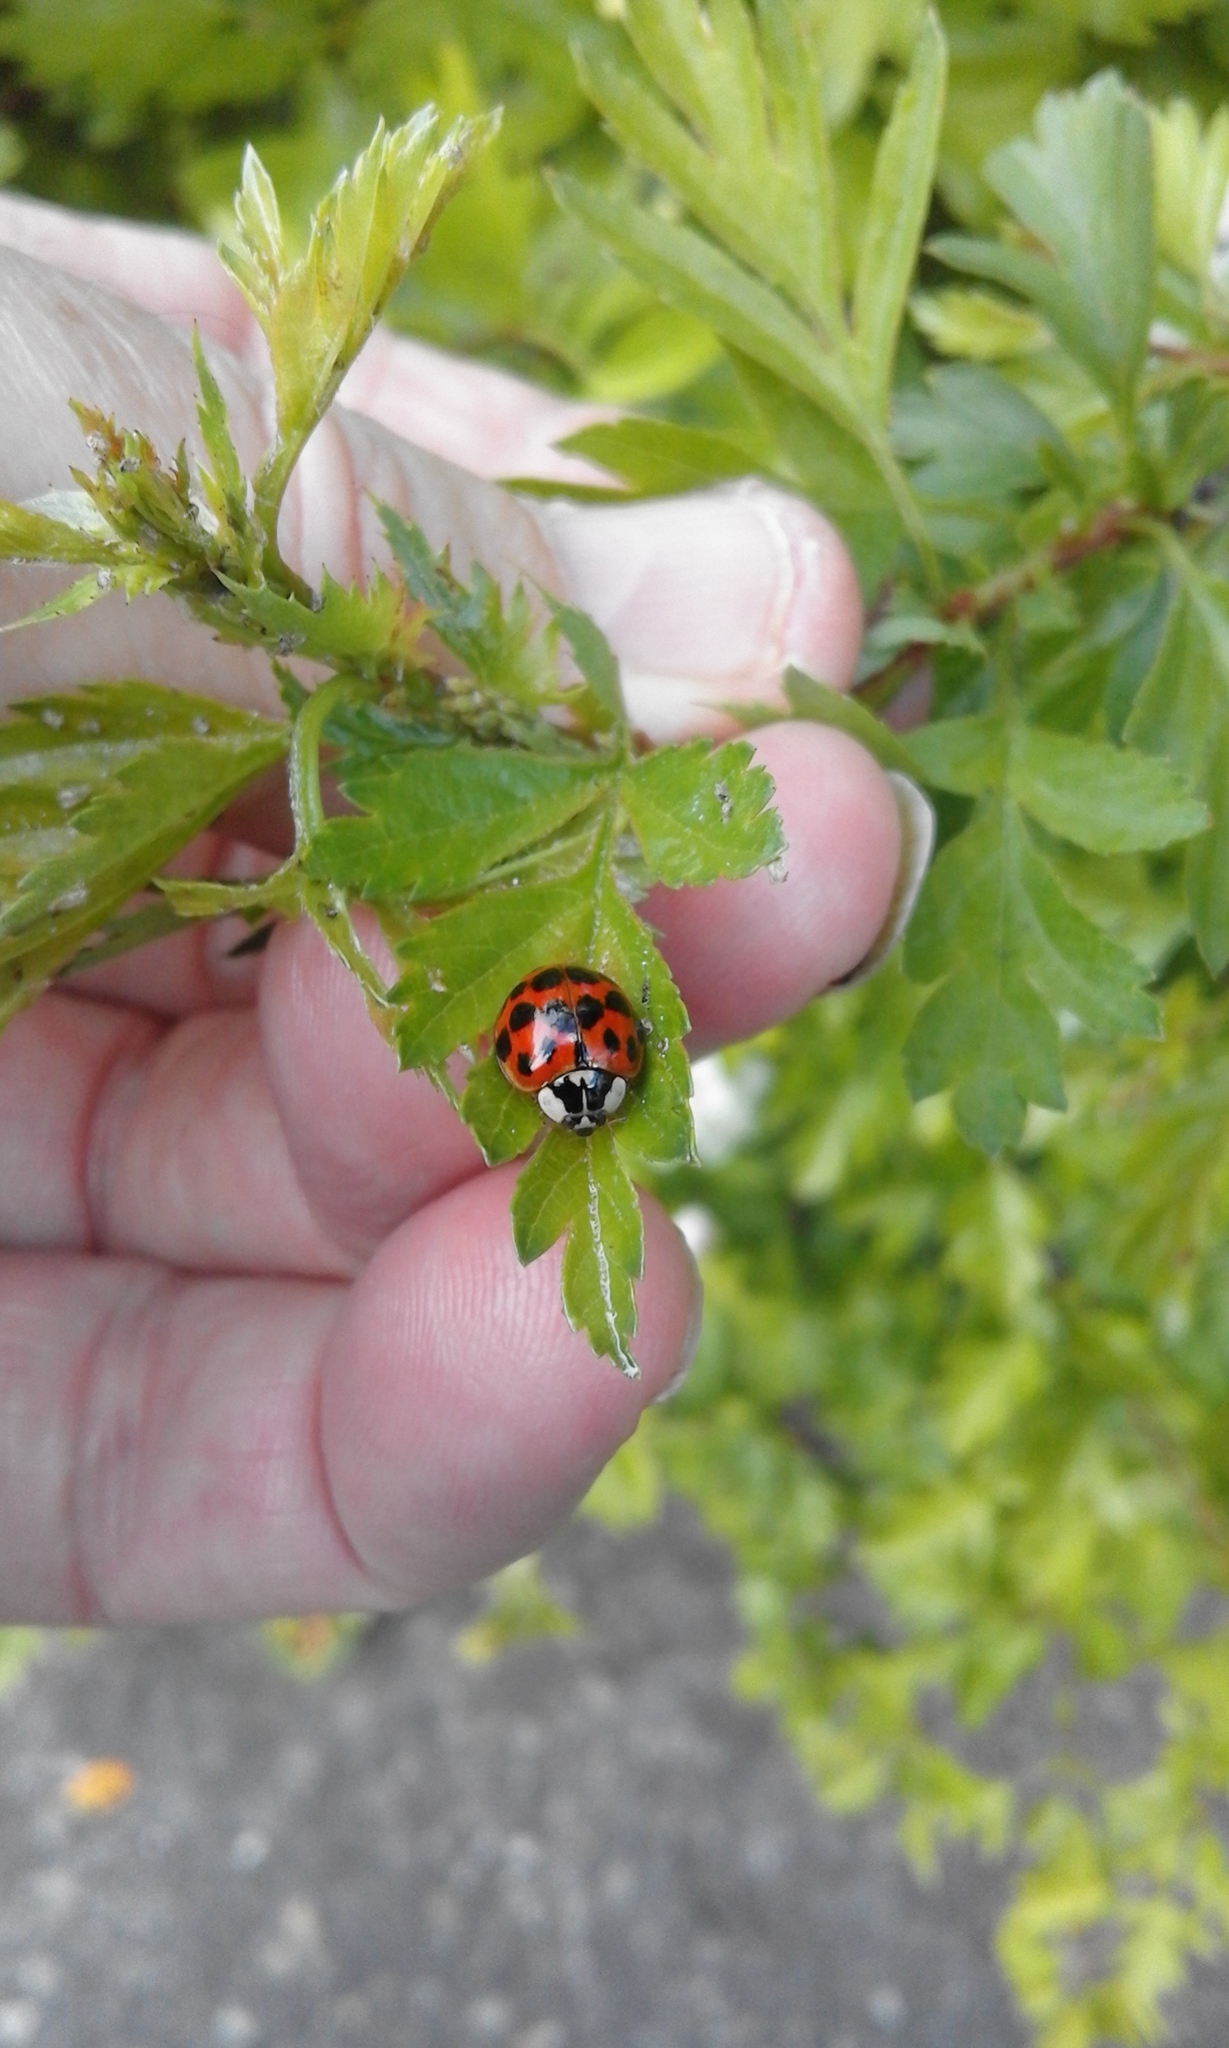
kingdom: Animalia
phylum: Arthropoda
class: Insecta
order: Coleoptera
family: Coccinellidae
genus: Harmonia
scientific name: Harmonia axyridis
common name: Harlequin ladybird
